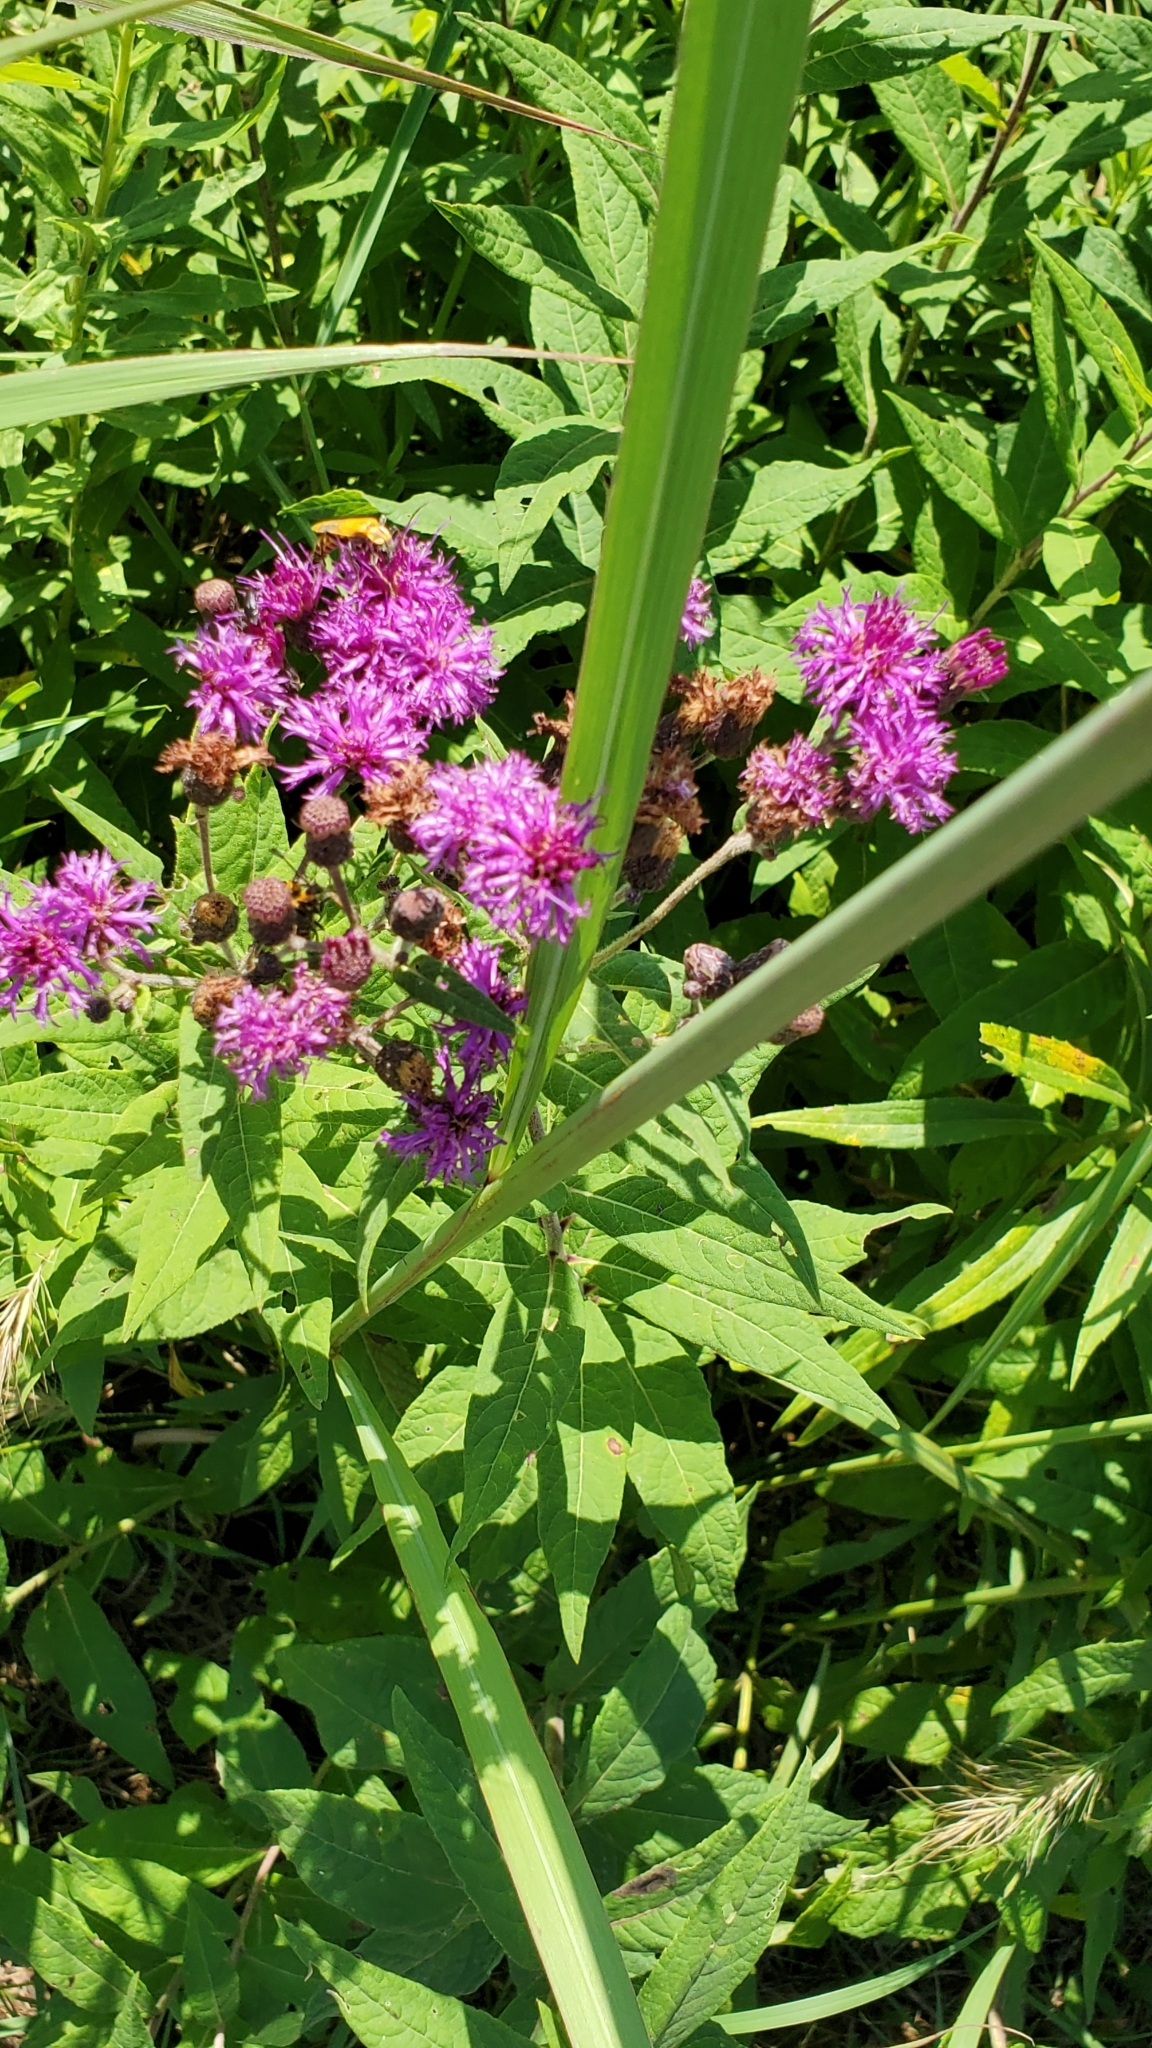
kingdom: Plantae
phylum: Tracheophyta
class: Magnoliopsida
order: Asterales
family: Asteraceae
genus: Vernonia
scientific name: Vernonia missurica
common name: Missouri ironweed
